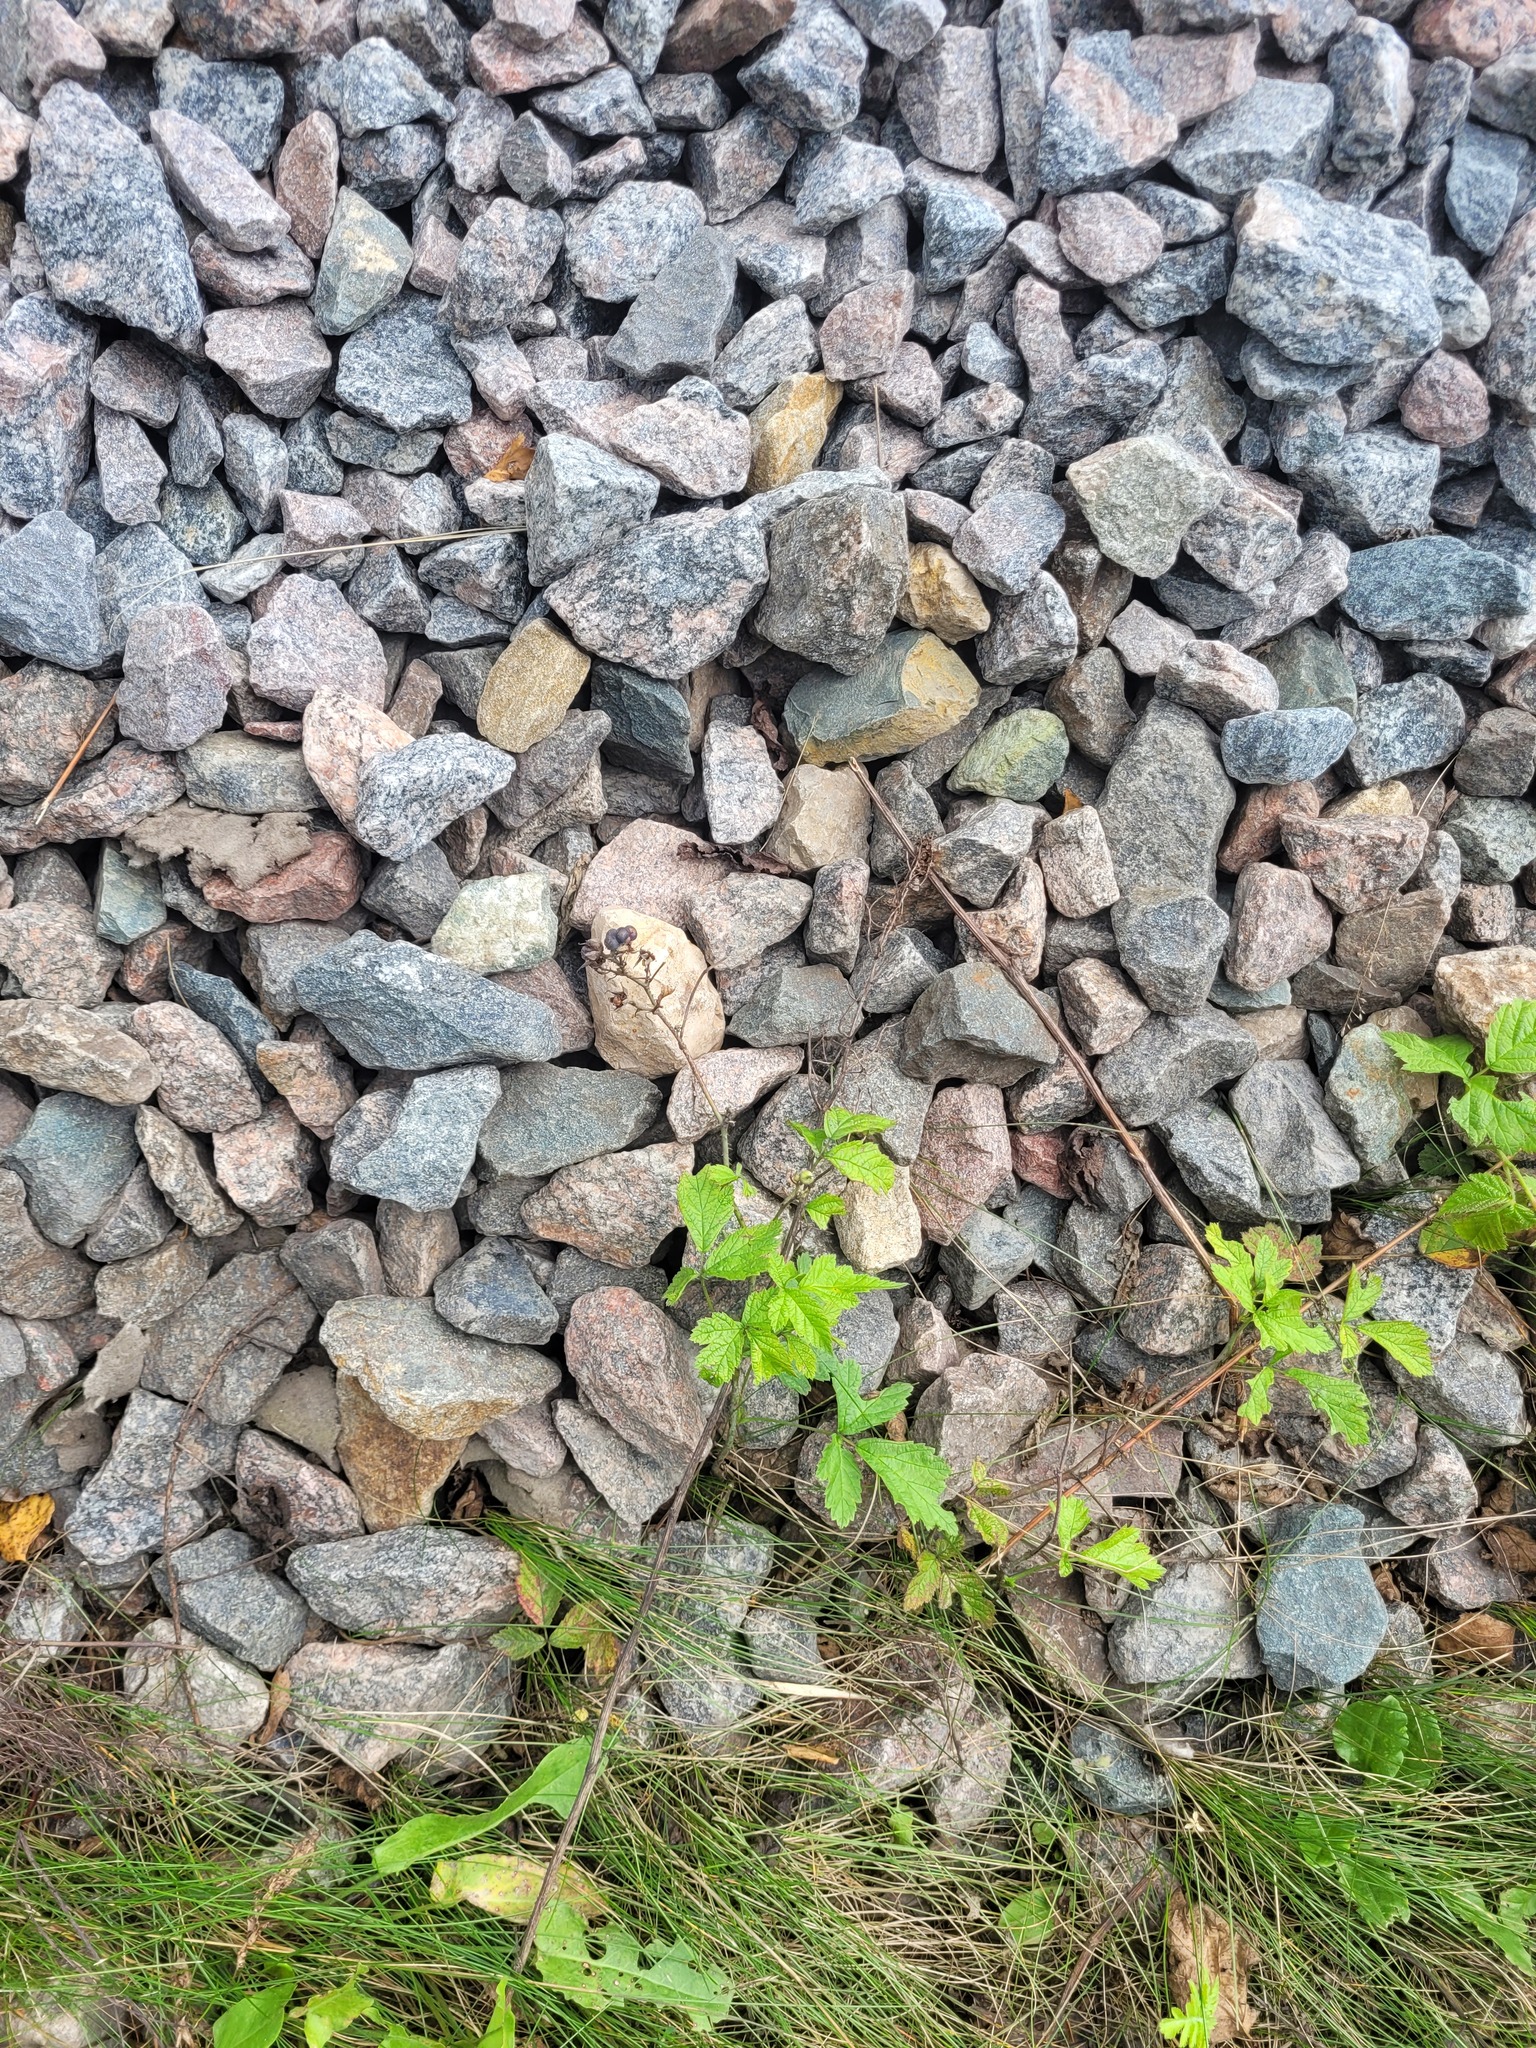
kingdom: Plantae
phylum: Tracheophyta
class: Magnoliopsida
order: Rosales
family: Rosaceae
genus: Rubus
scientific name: Rubus caesius
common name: Dewberry
